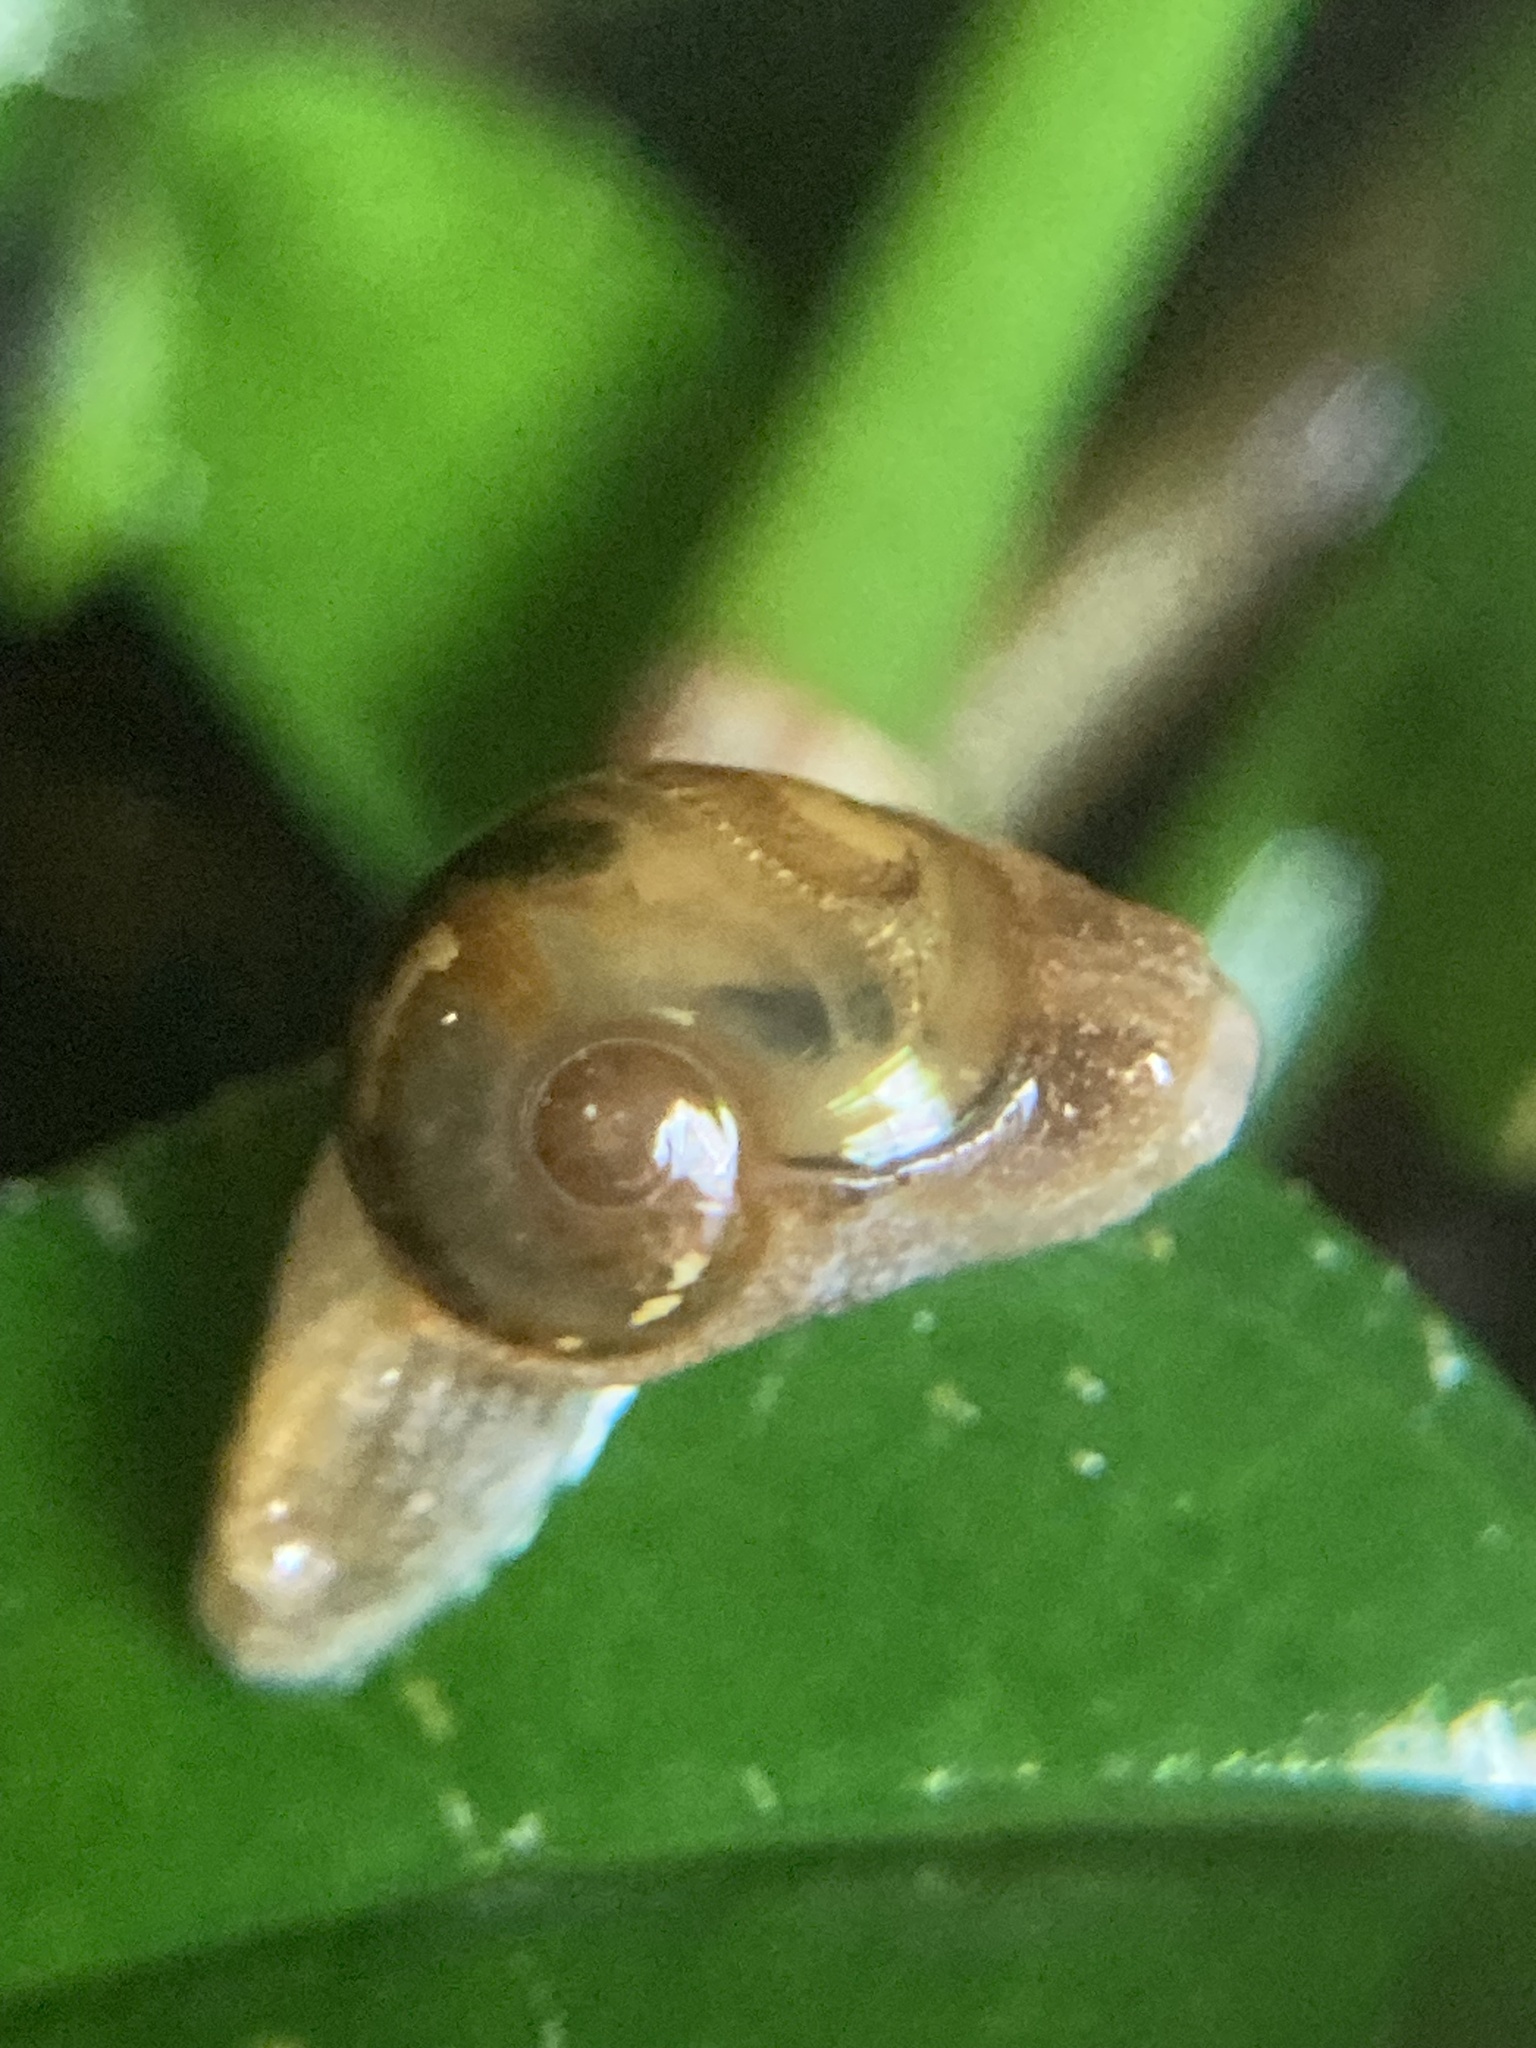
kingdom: Animalia
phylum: Mollusca
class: Gastropoda
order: Stylommatophora
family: Helicarionidae
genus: Helicarion
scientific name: Helicarion mastersi
